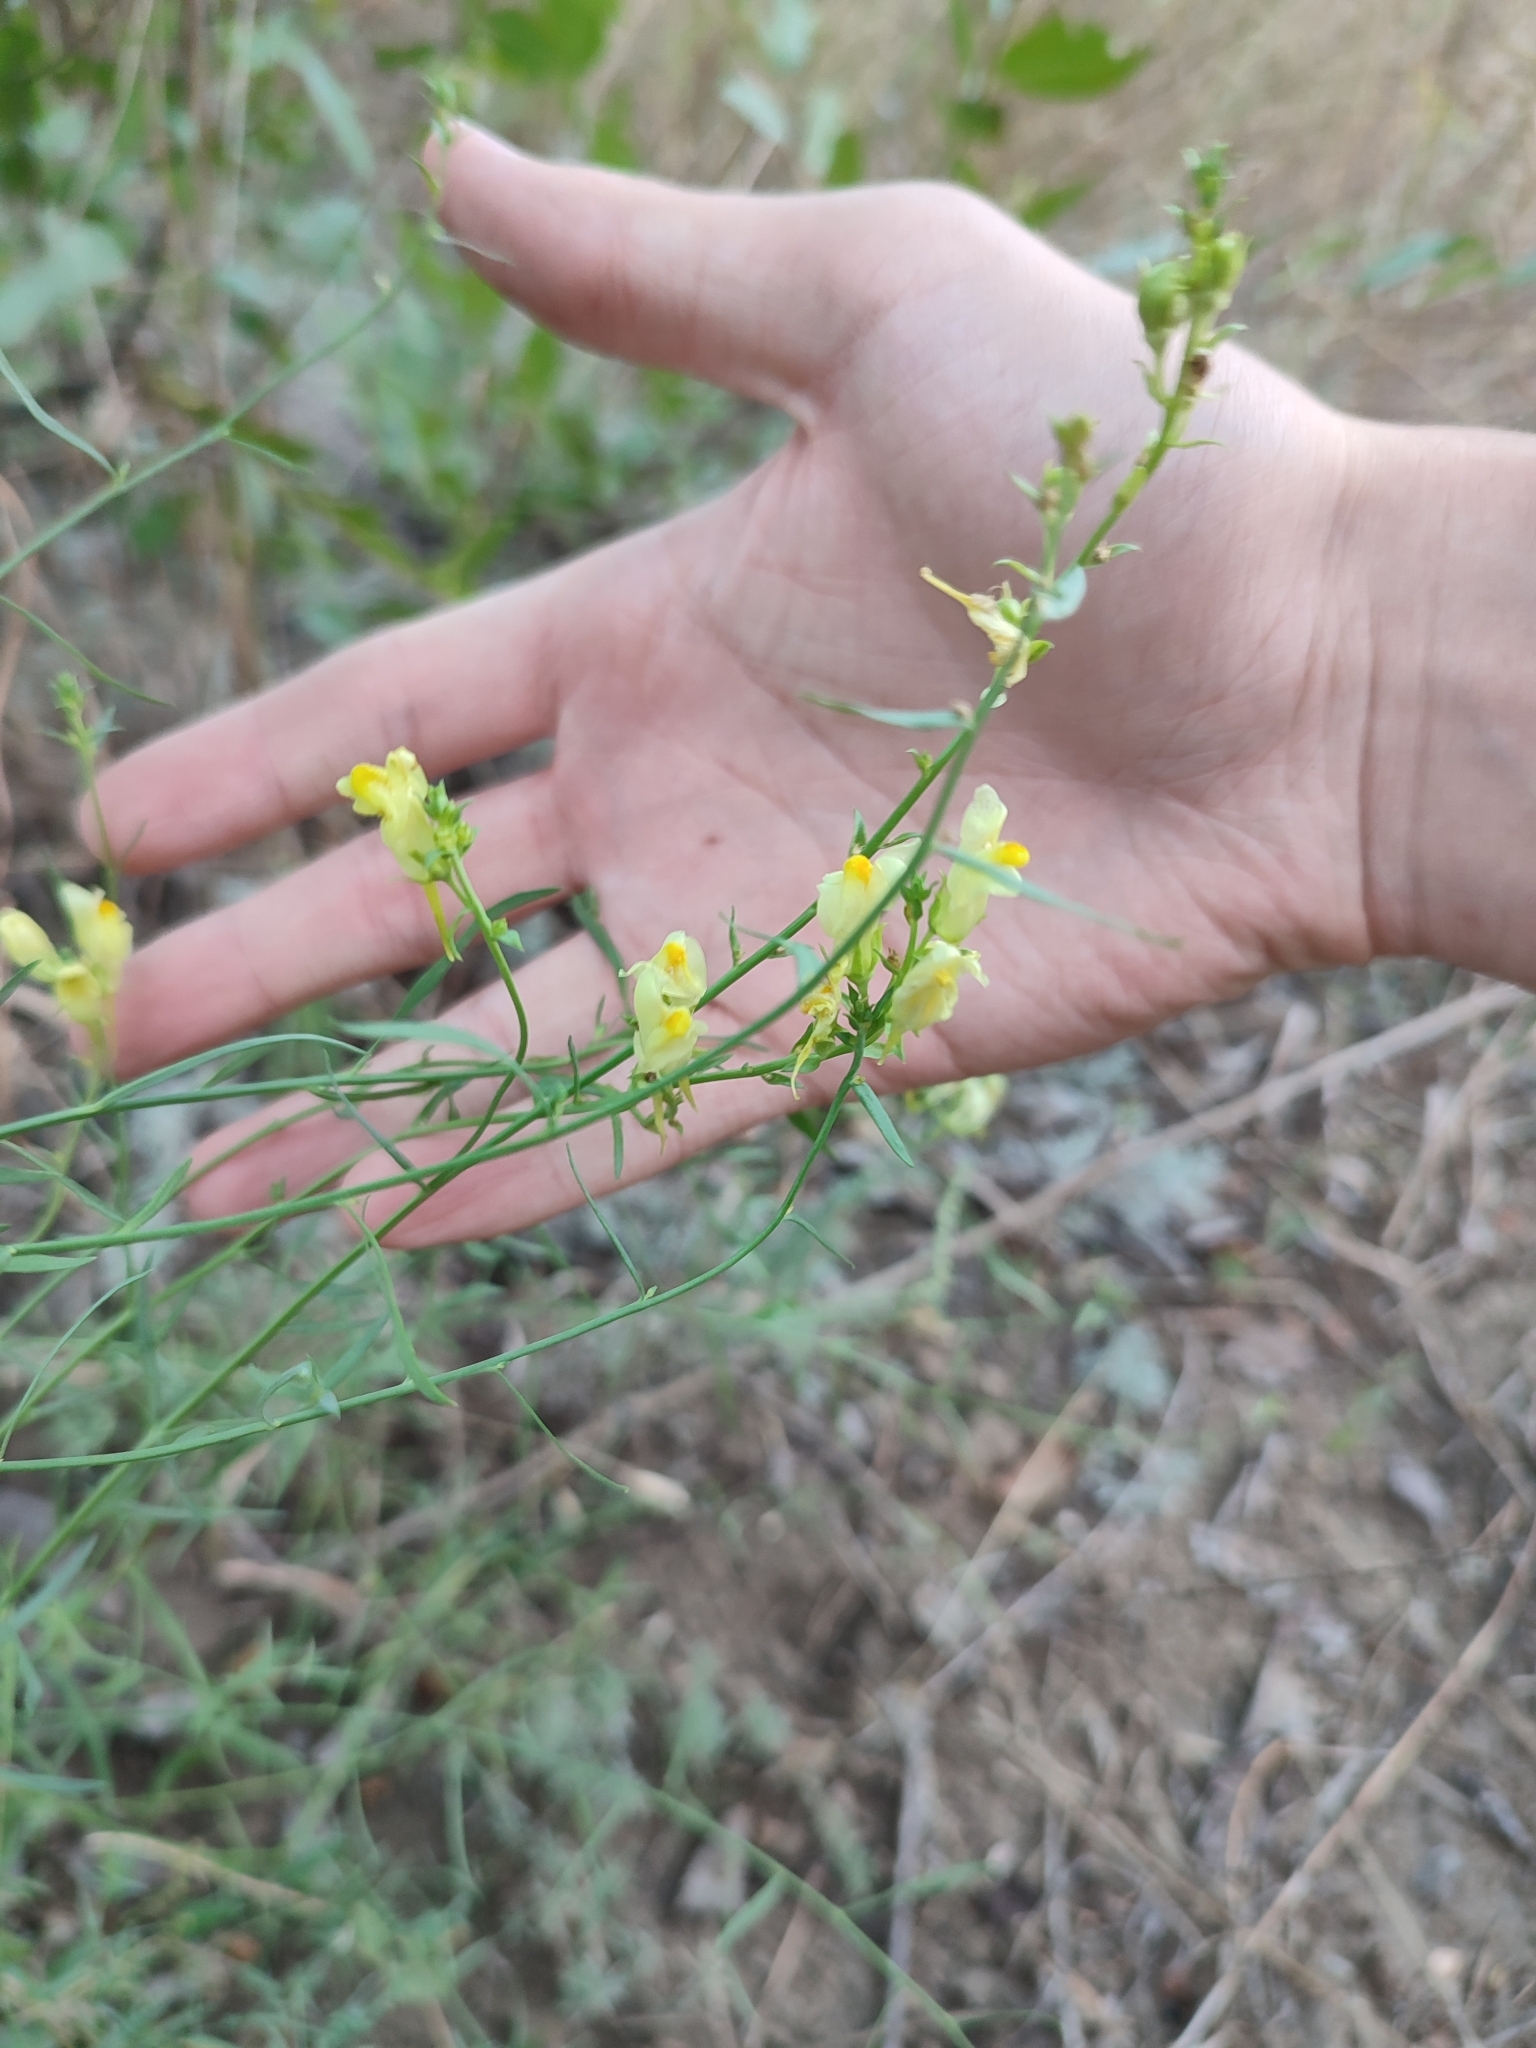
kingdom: Plantae
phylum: Tracheophyta
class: Magnoliopsida
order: Lamiales
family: Plantaginaceae
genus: Linaria
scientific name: Linaria vulgaris
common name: Butter and eggs
